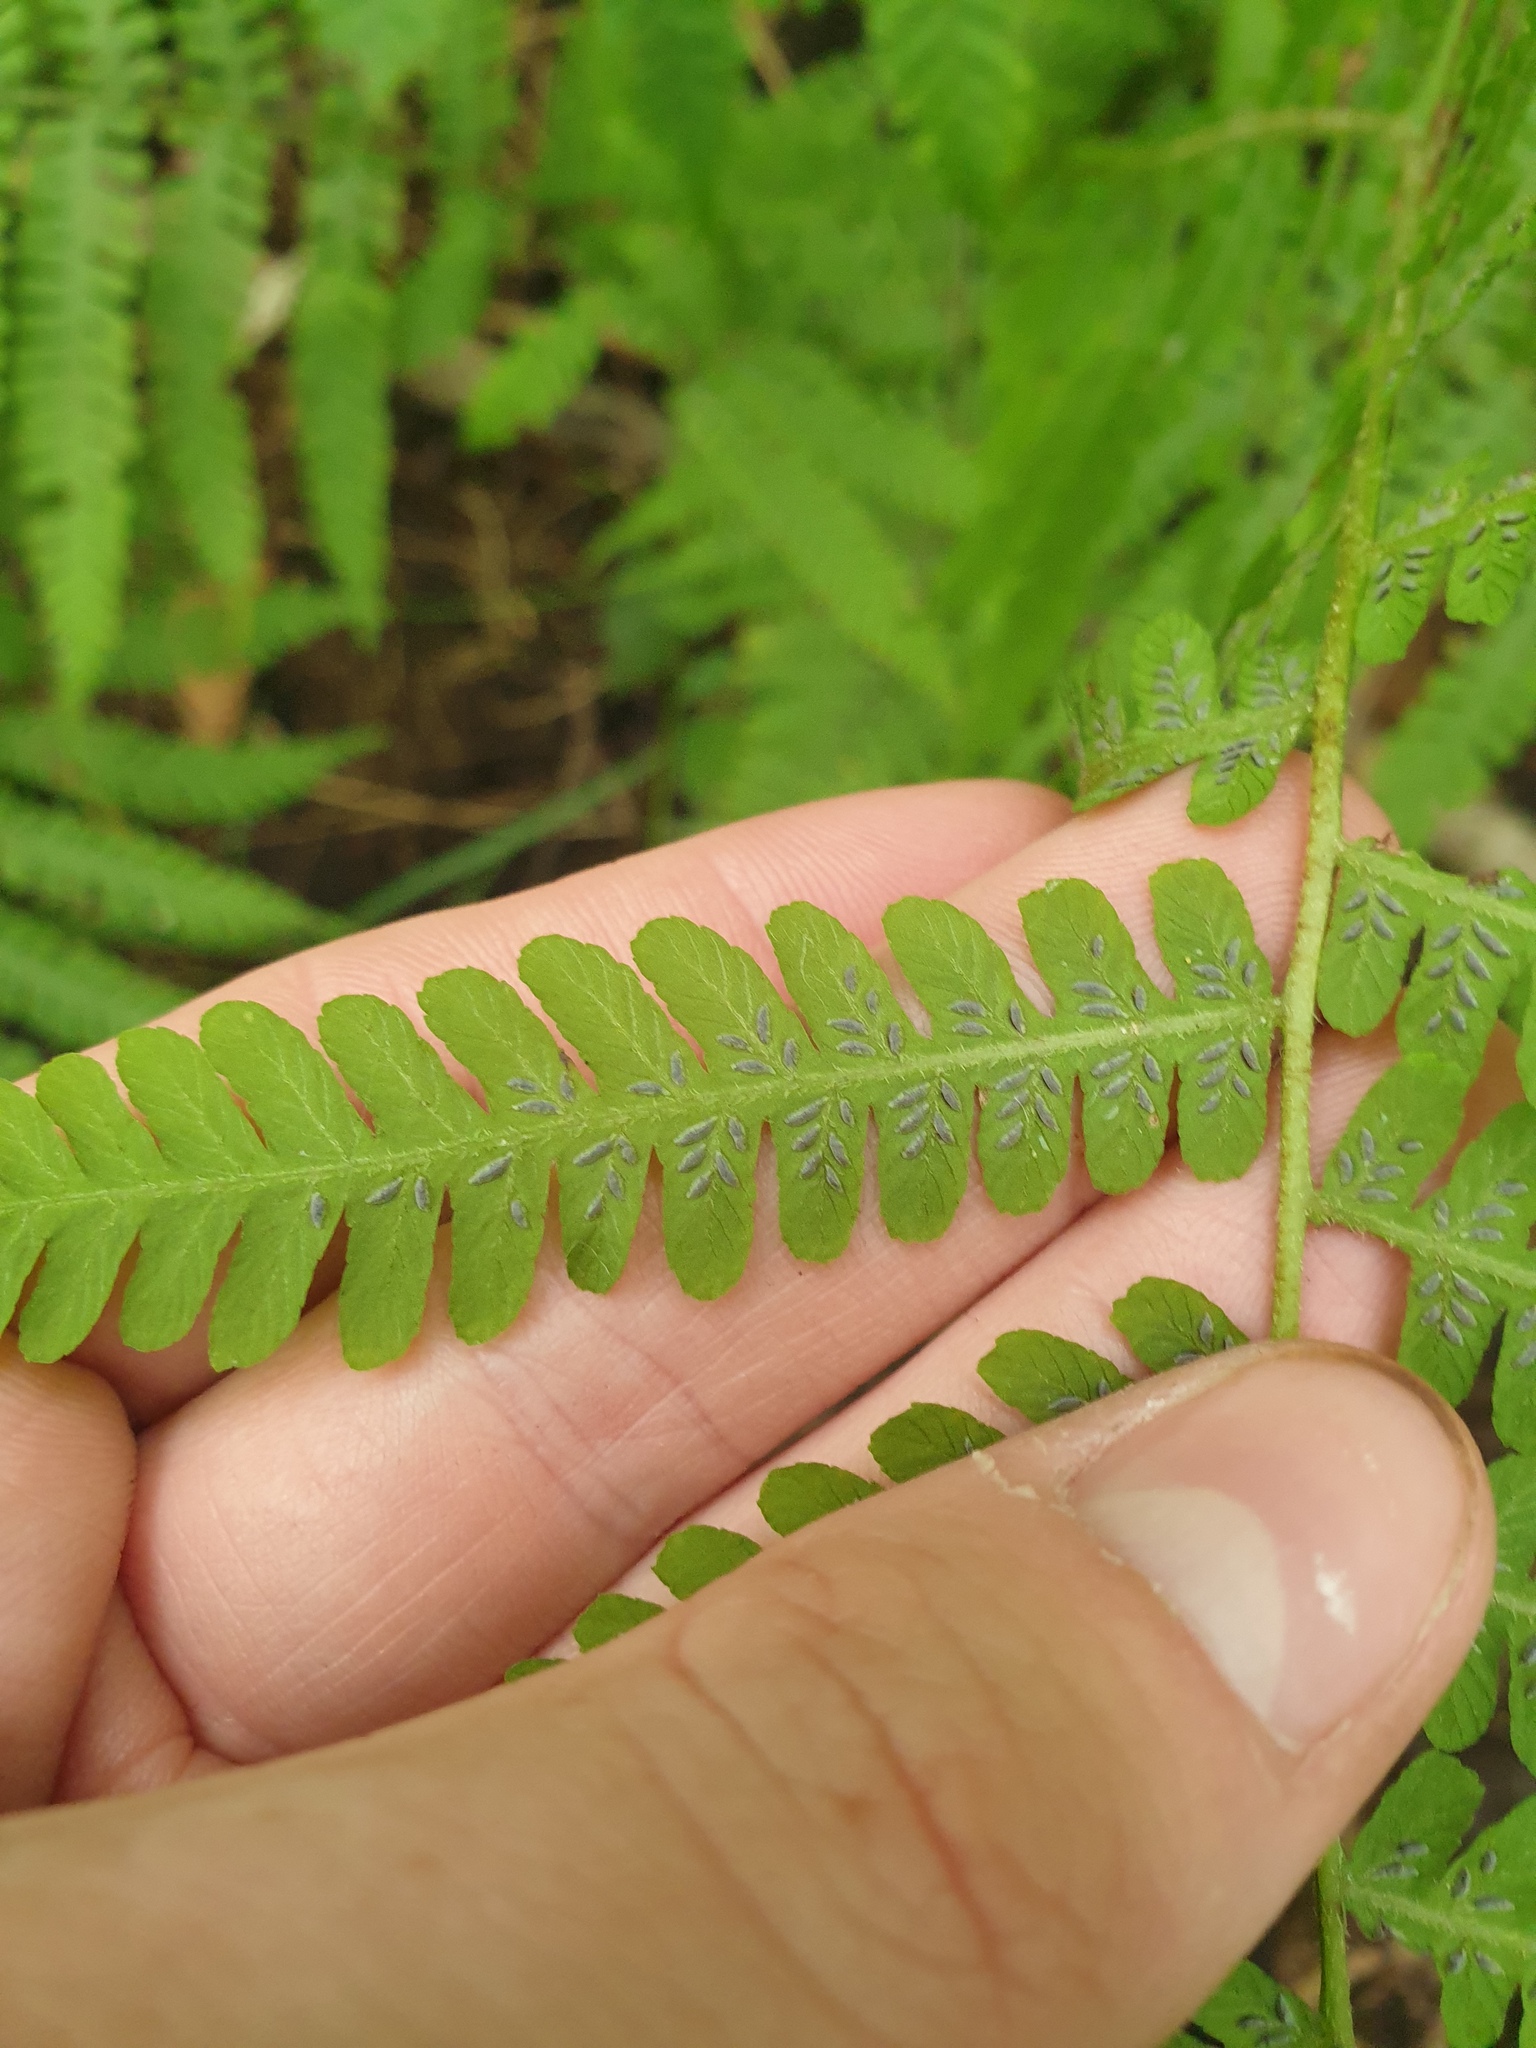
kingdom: Plantae
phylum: Tracheophyta
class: Polypodiopsida
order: Polypodiales
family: Athyriaceae
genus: Deparia
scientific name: Deparia acrostichoides
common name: Silver false spleenwort
